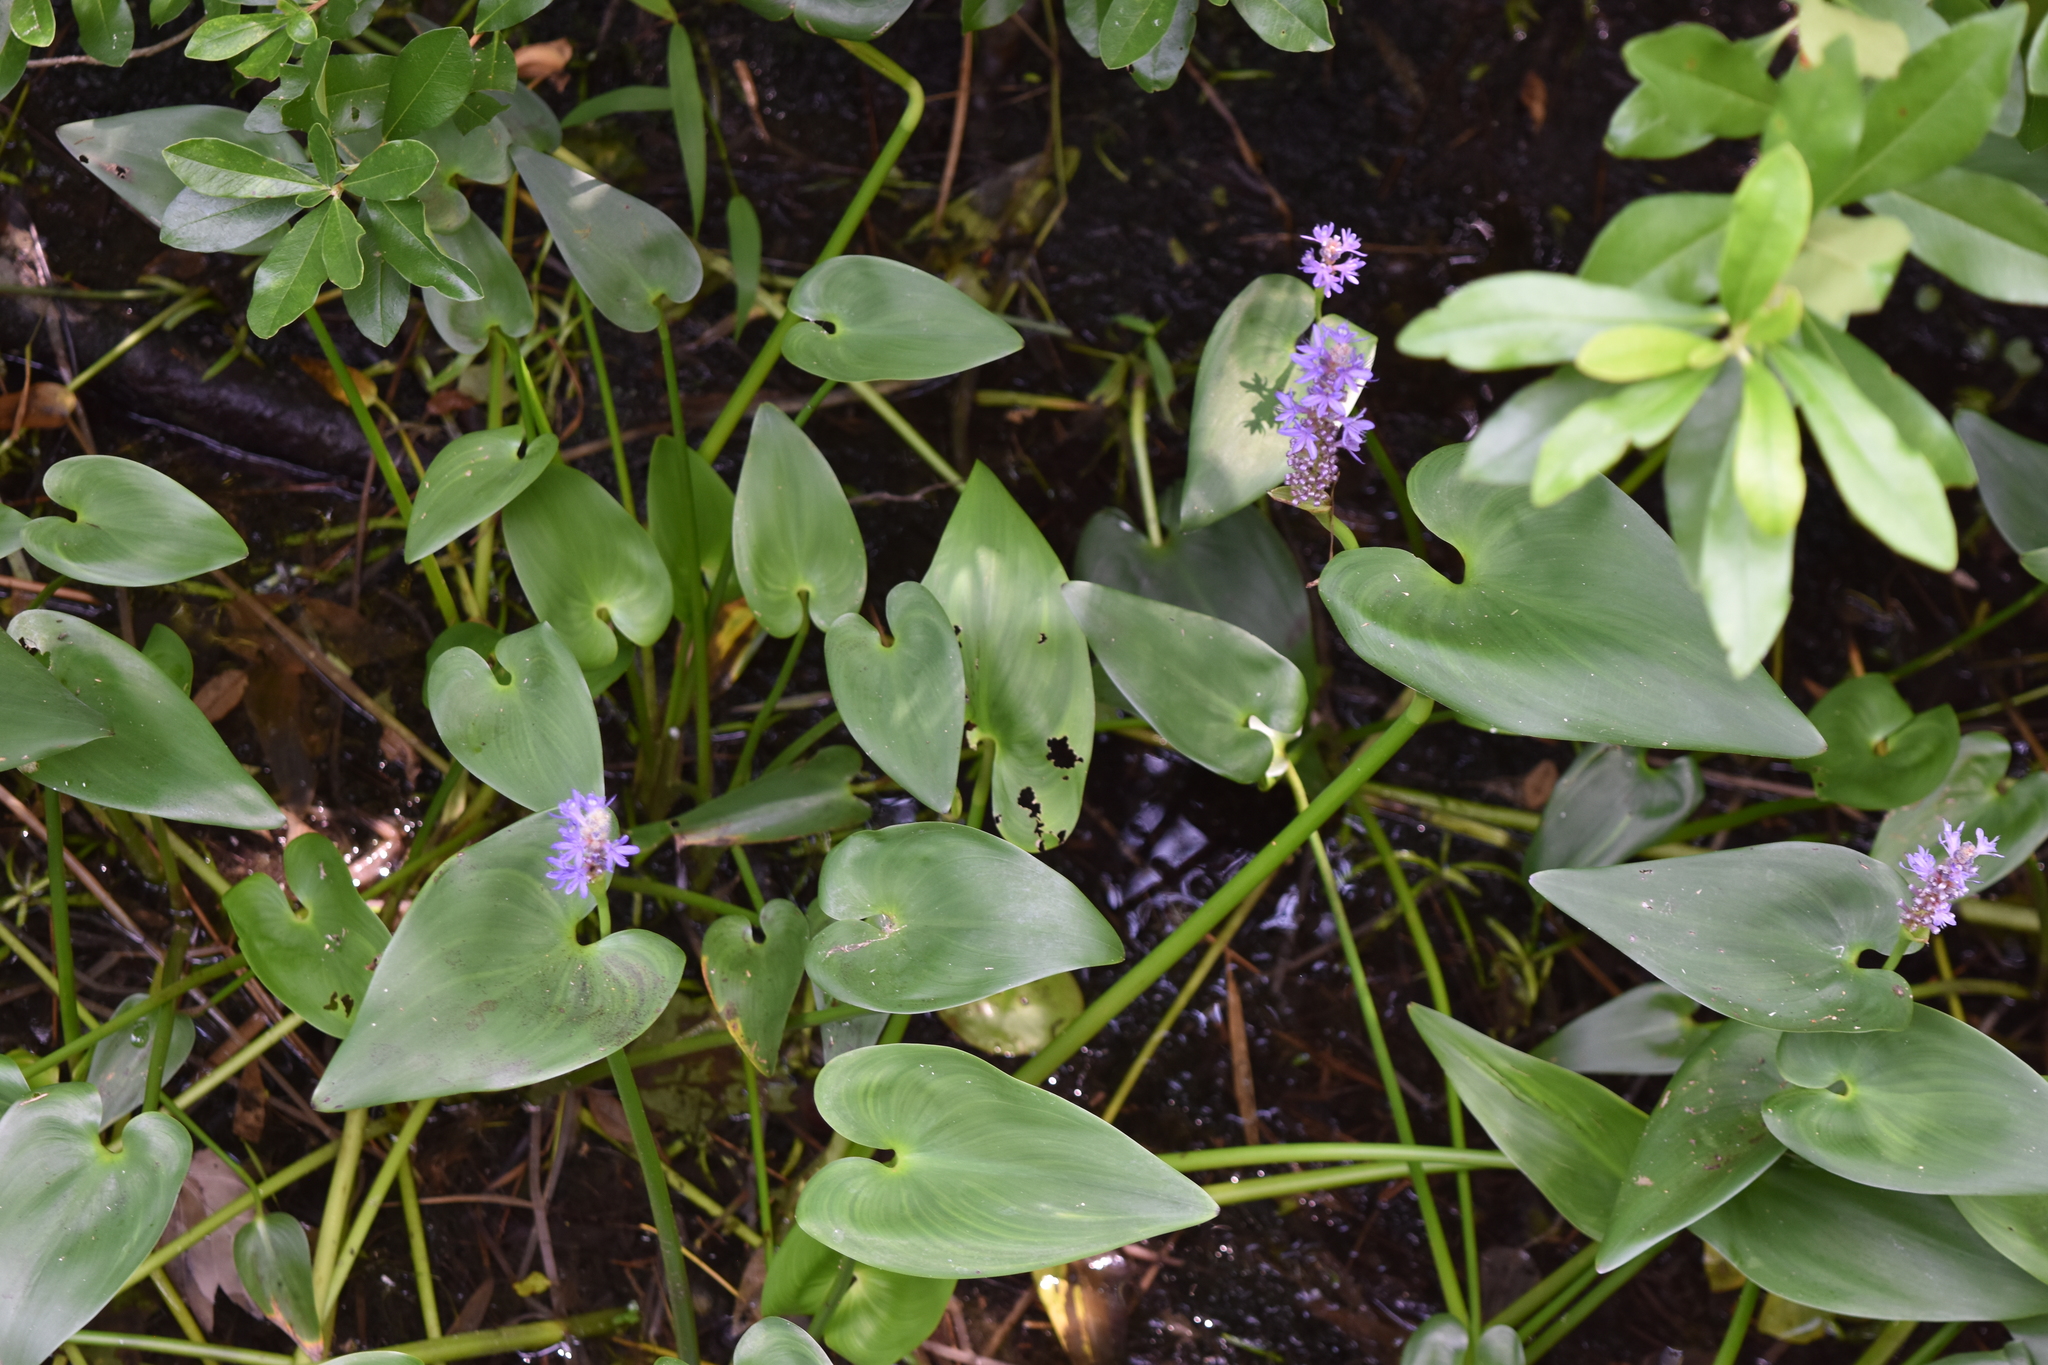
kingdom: Plantae
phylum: Tracheophyta
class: Liliopsida
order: Commelinales
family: Pontederiaceae
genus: Pontederia
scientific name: Pontederia cordata
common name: Pickerelweed
